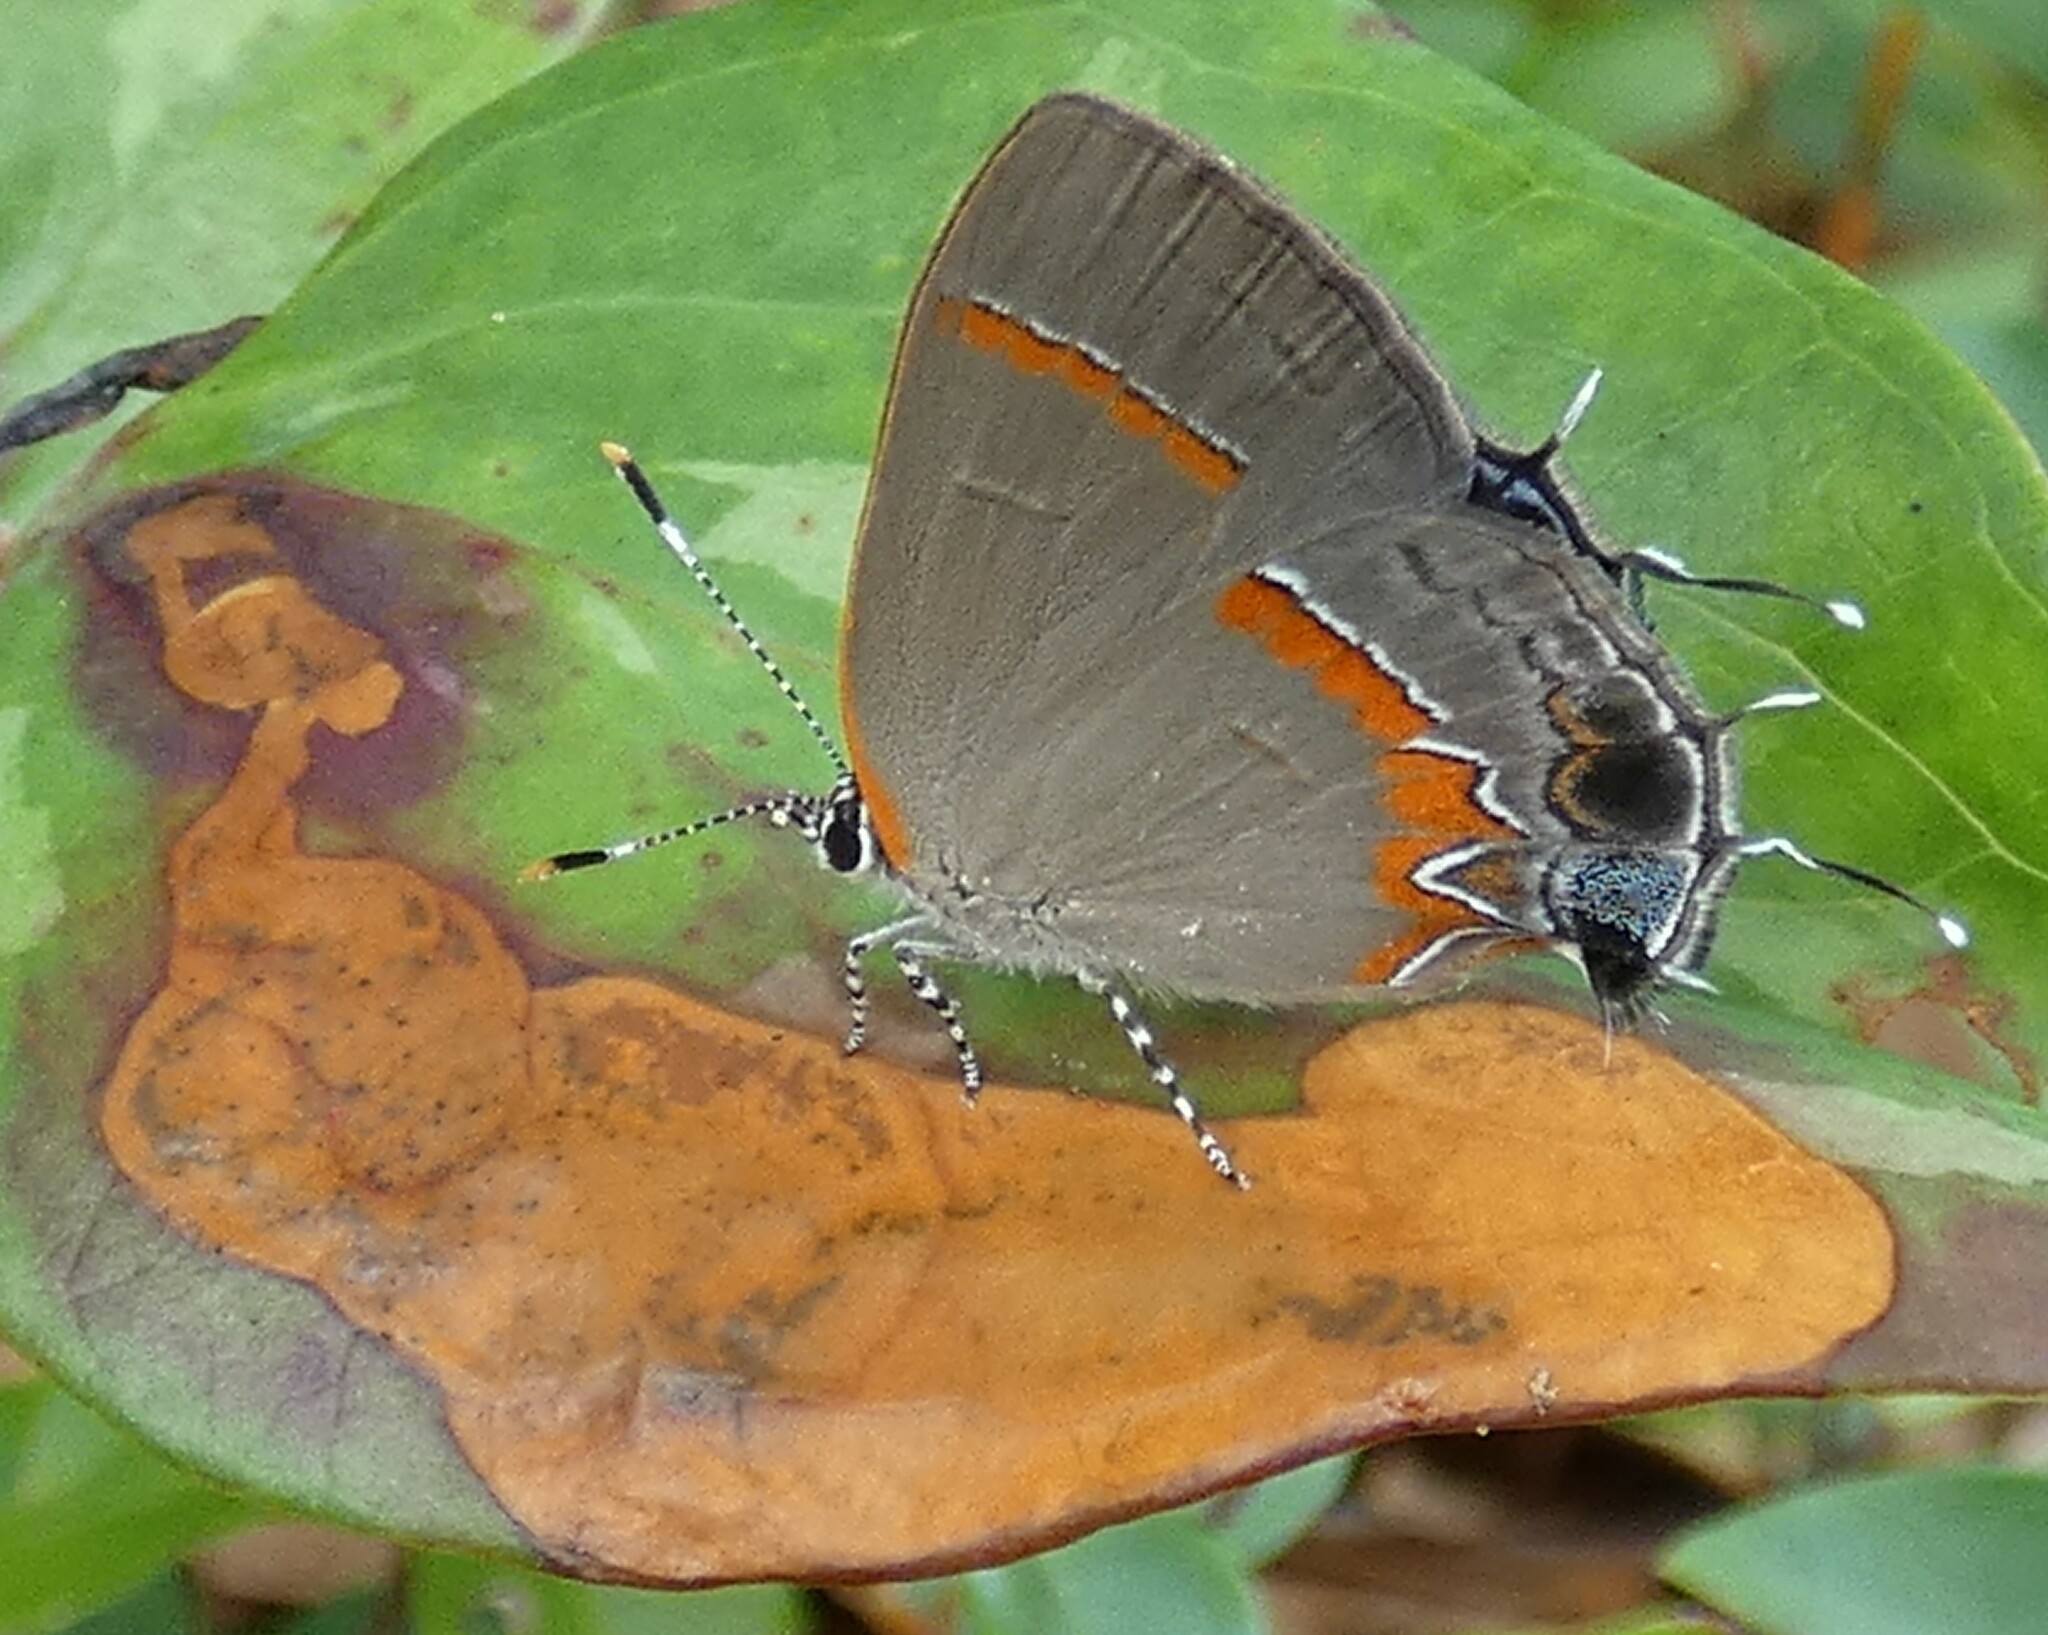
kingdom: Animalia
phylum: Arthropoda
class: Insecta
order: Lepidoptera
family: Lycaenidae
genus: Calycopis
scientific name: Calycopis cecrops
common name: Red-banded hairstreak
